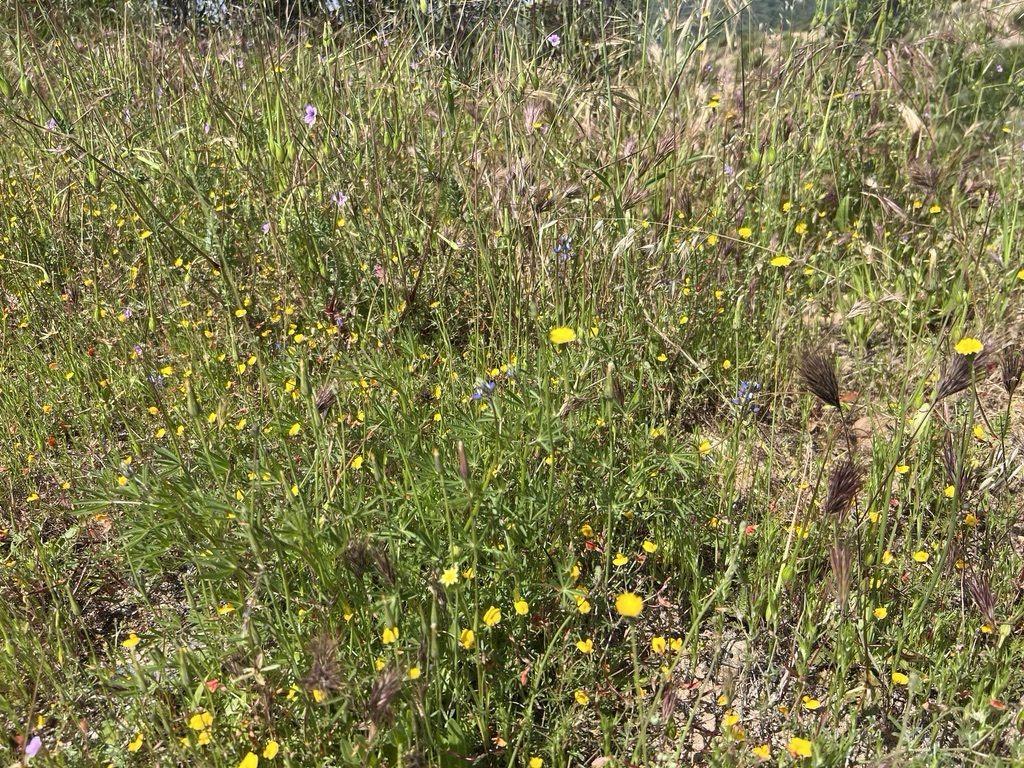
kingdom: Plantae
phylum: Tracheophyta
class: Magnoliopsida
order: Fabales
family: Fabaceae
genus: Lupinus
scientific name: Lupinus bicolor
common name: Miniature lupine
